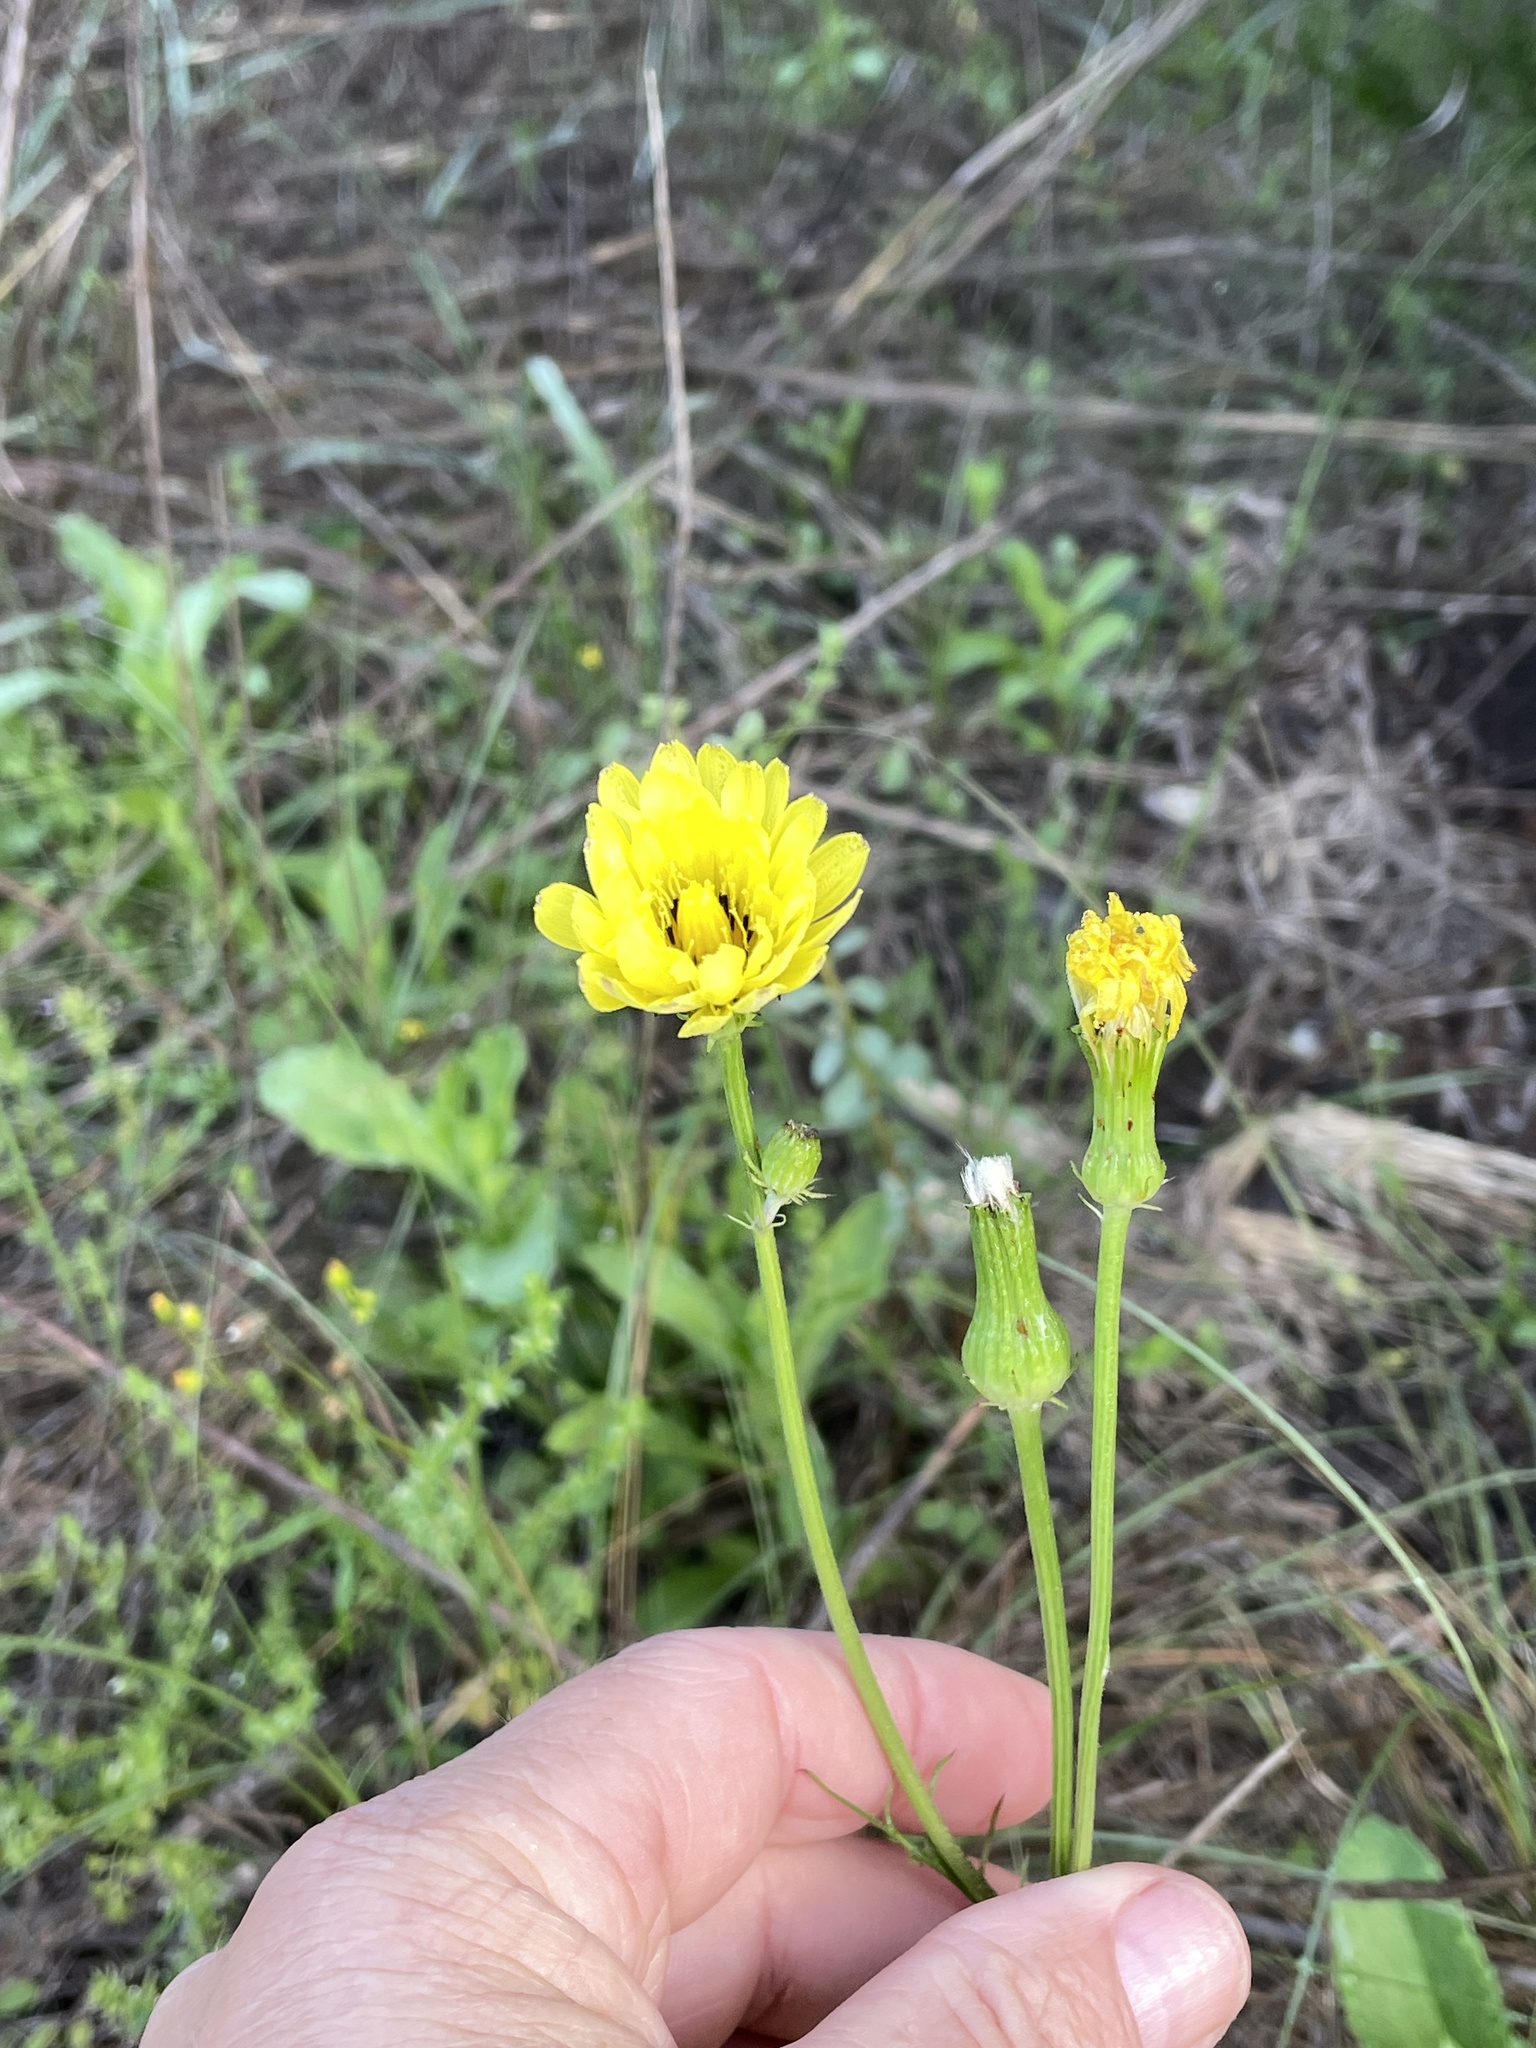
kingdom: Plantae
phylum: Tracheophyta
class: Magnoliopsida
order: Asterales
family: Asteraceae
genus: Pyrrhopappus
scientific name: Pyrrhopappus pauciflorus
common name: Texas false dandelion
